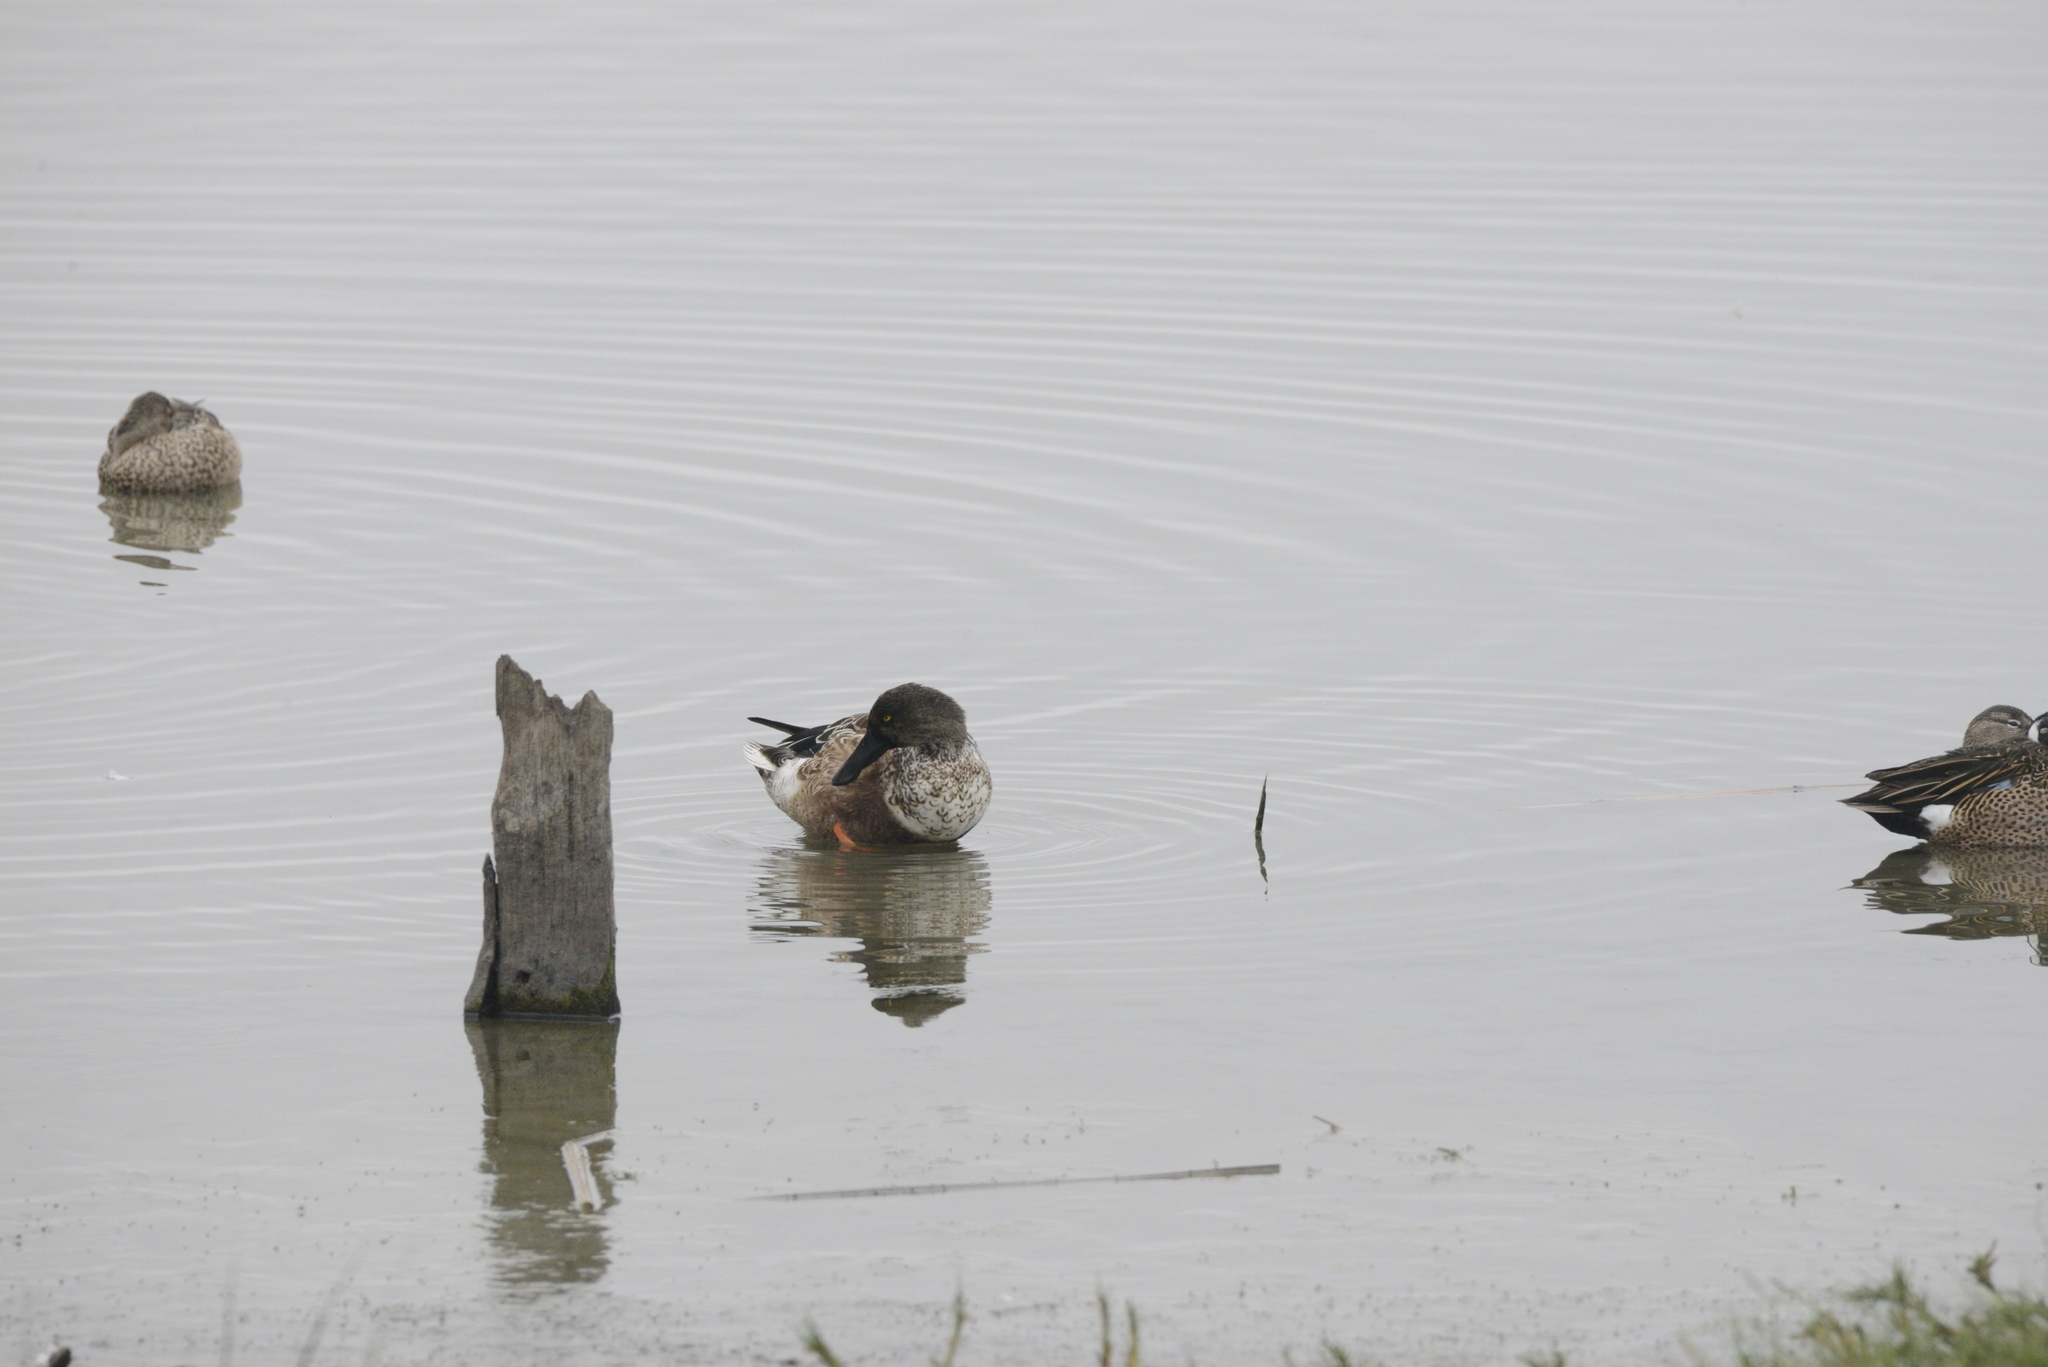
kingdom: Animalia
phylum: Chordata
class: Aves
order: Anseriformes
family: Anatidae
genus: Spatula
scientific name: Spatula clypeata
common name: Northern shoveler
